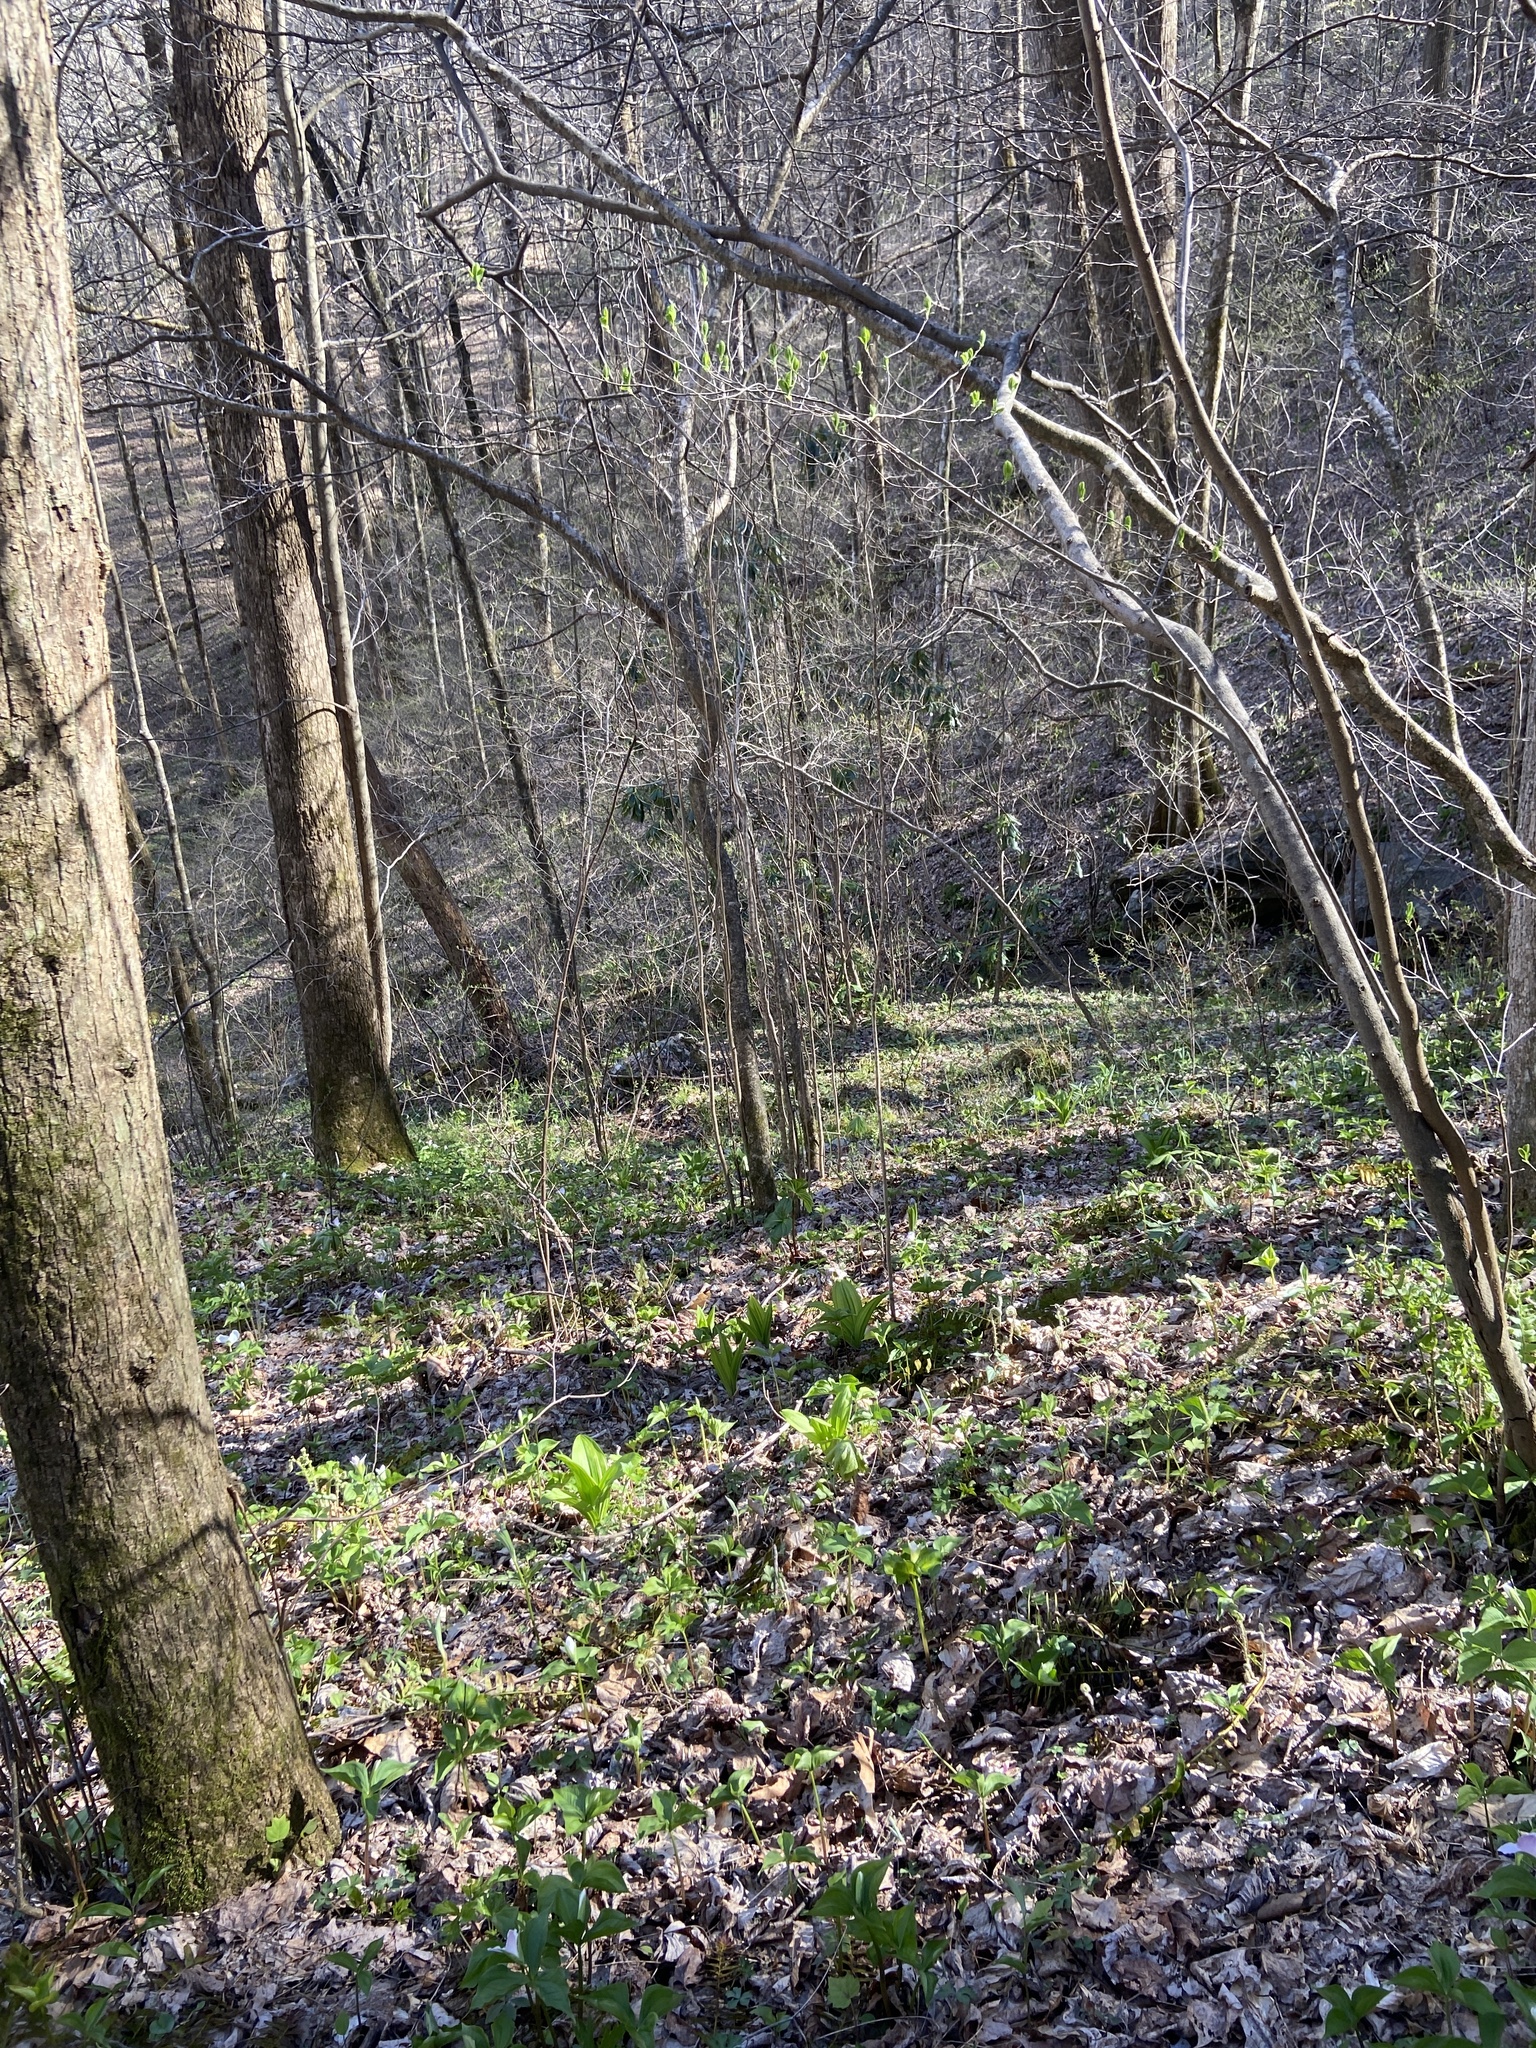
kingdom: Plantae
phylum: Tracheophyta
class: Liliopsida
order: Liliales
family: Melanthiaceae
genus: Trillium
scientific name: Trillium grandiflorum
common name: Great white trillium
